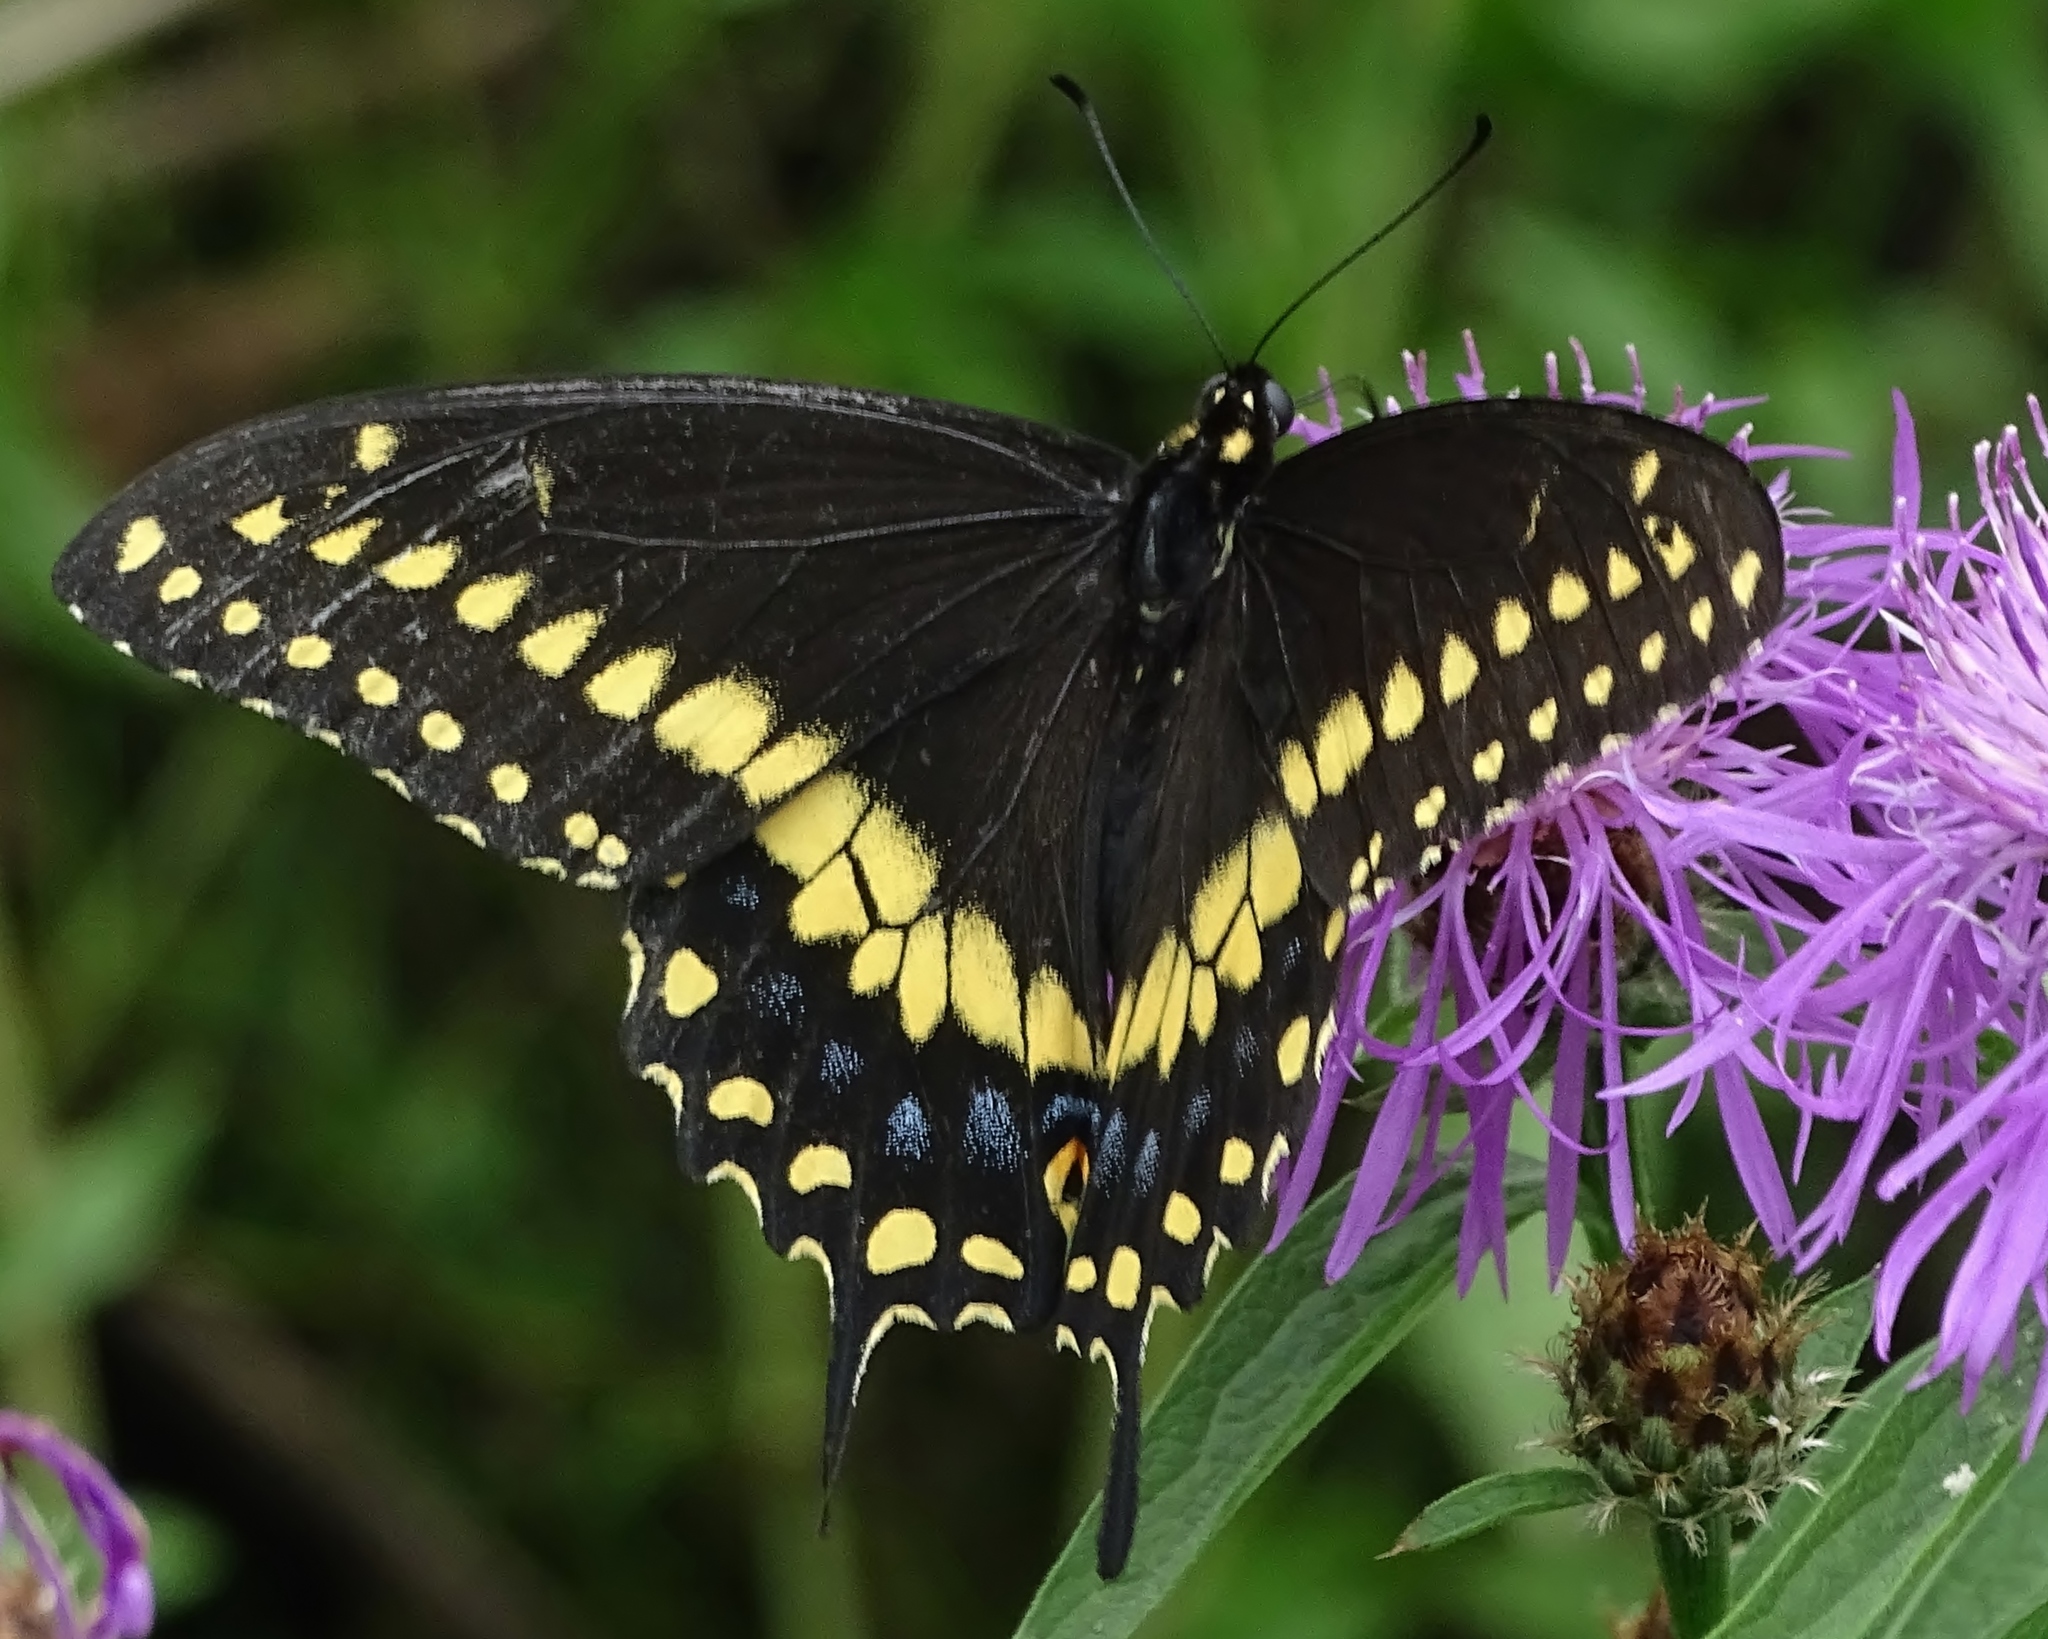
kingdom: Animalia
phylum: Arthropoda
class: Insecta
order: Lepidoptera
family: Papilionidae
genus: Papilio
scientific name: Papilio polyxenes
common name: Black swallowtail
